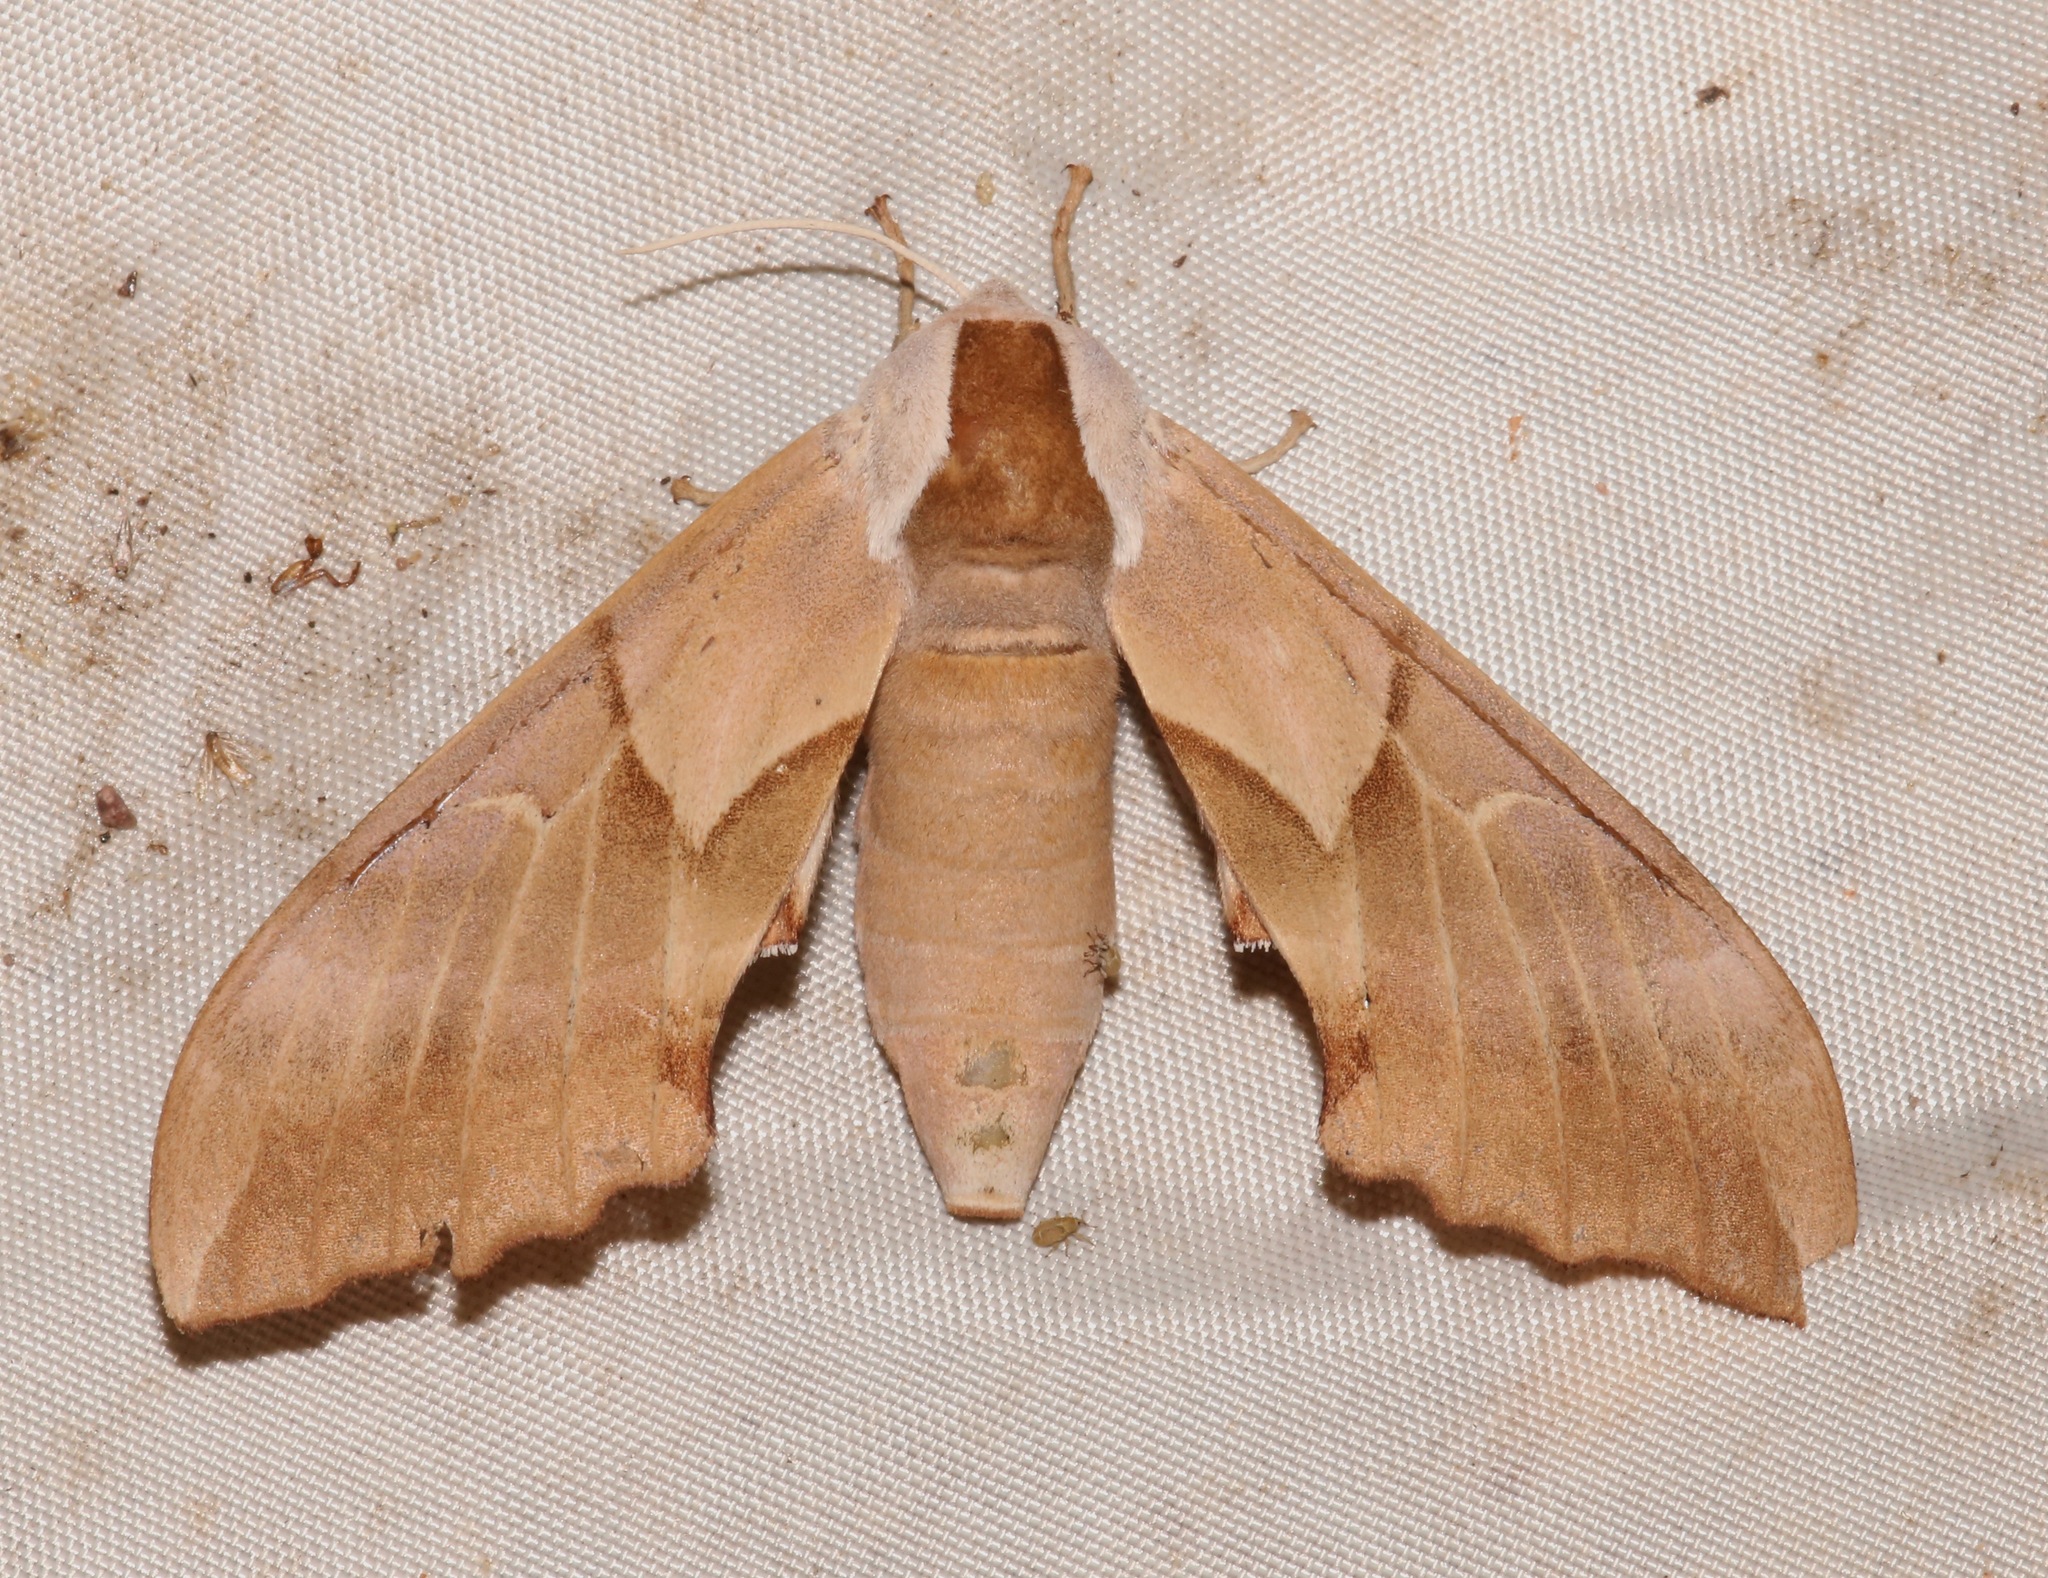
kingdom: Animalia
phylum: Arthropoda
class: Insecta
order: Lepidoptera
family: Sphingidae
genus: Smerinthus
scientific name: Smerinthus saliceti
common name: Salicet sphinx
